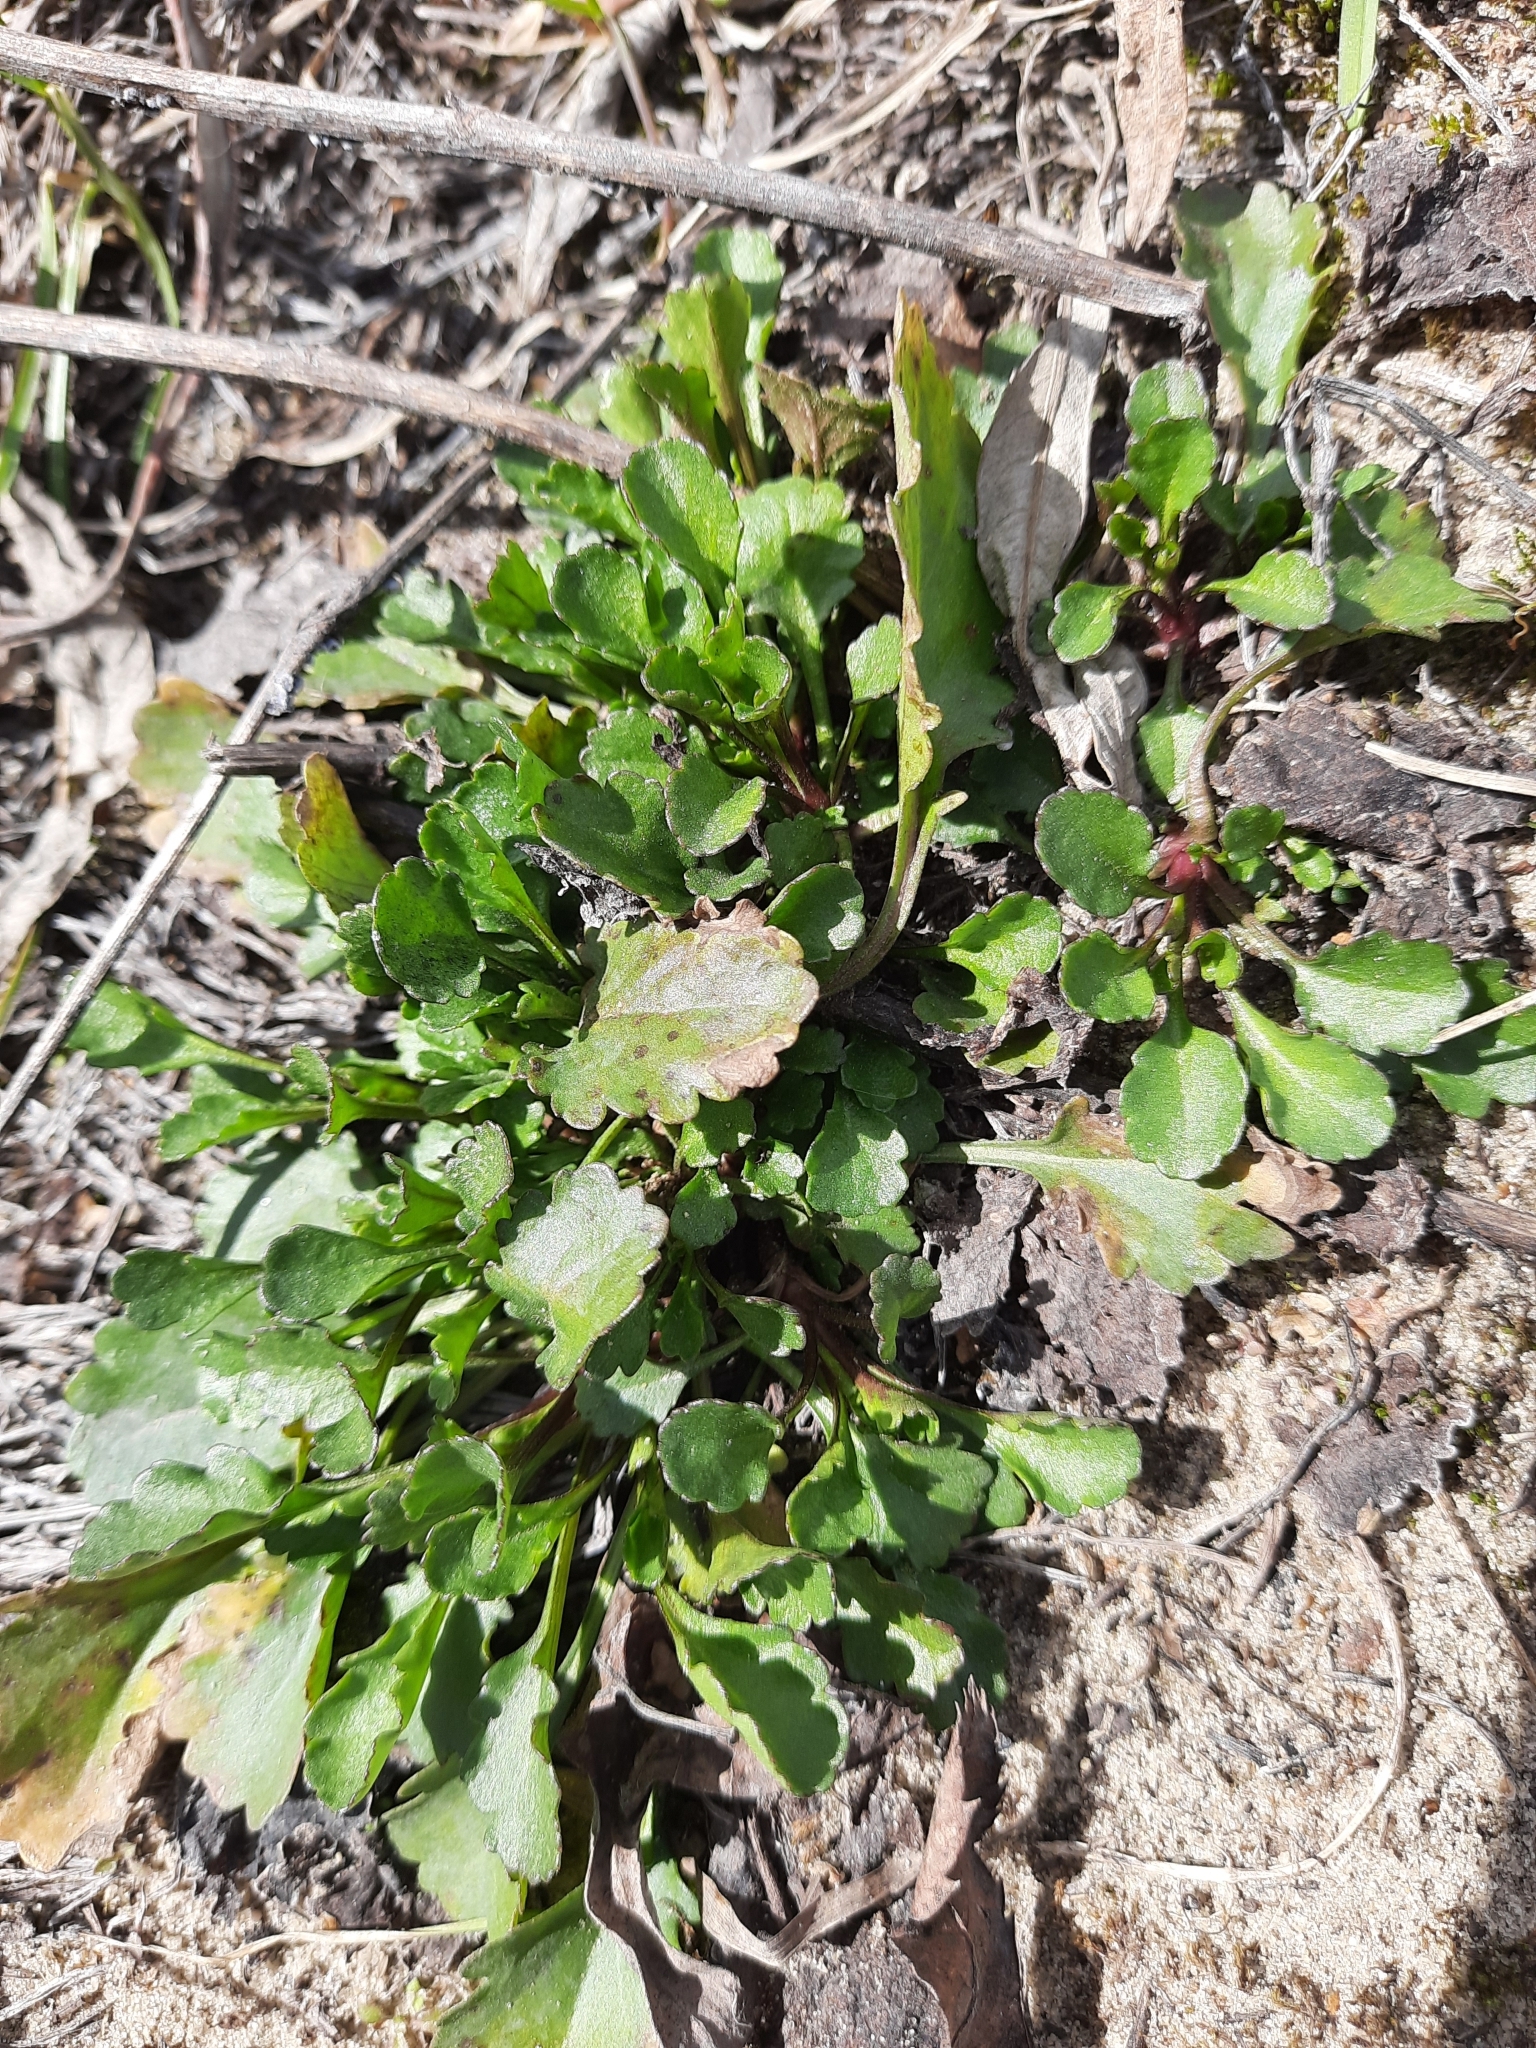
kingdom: Plantae
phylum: Tracheophyta
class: Magnoliopsida
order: Asterales
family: Asteraceae
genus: Leucanthemum
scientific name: Leucanthemum ircutianum
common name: Daisy
